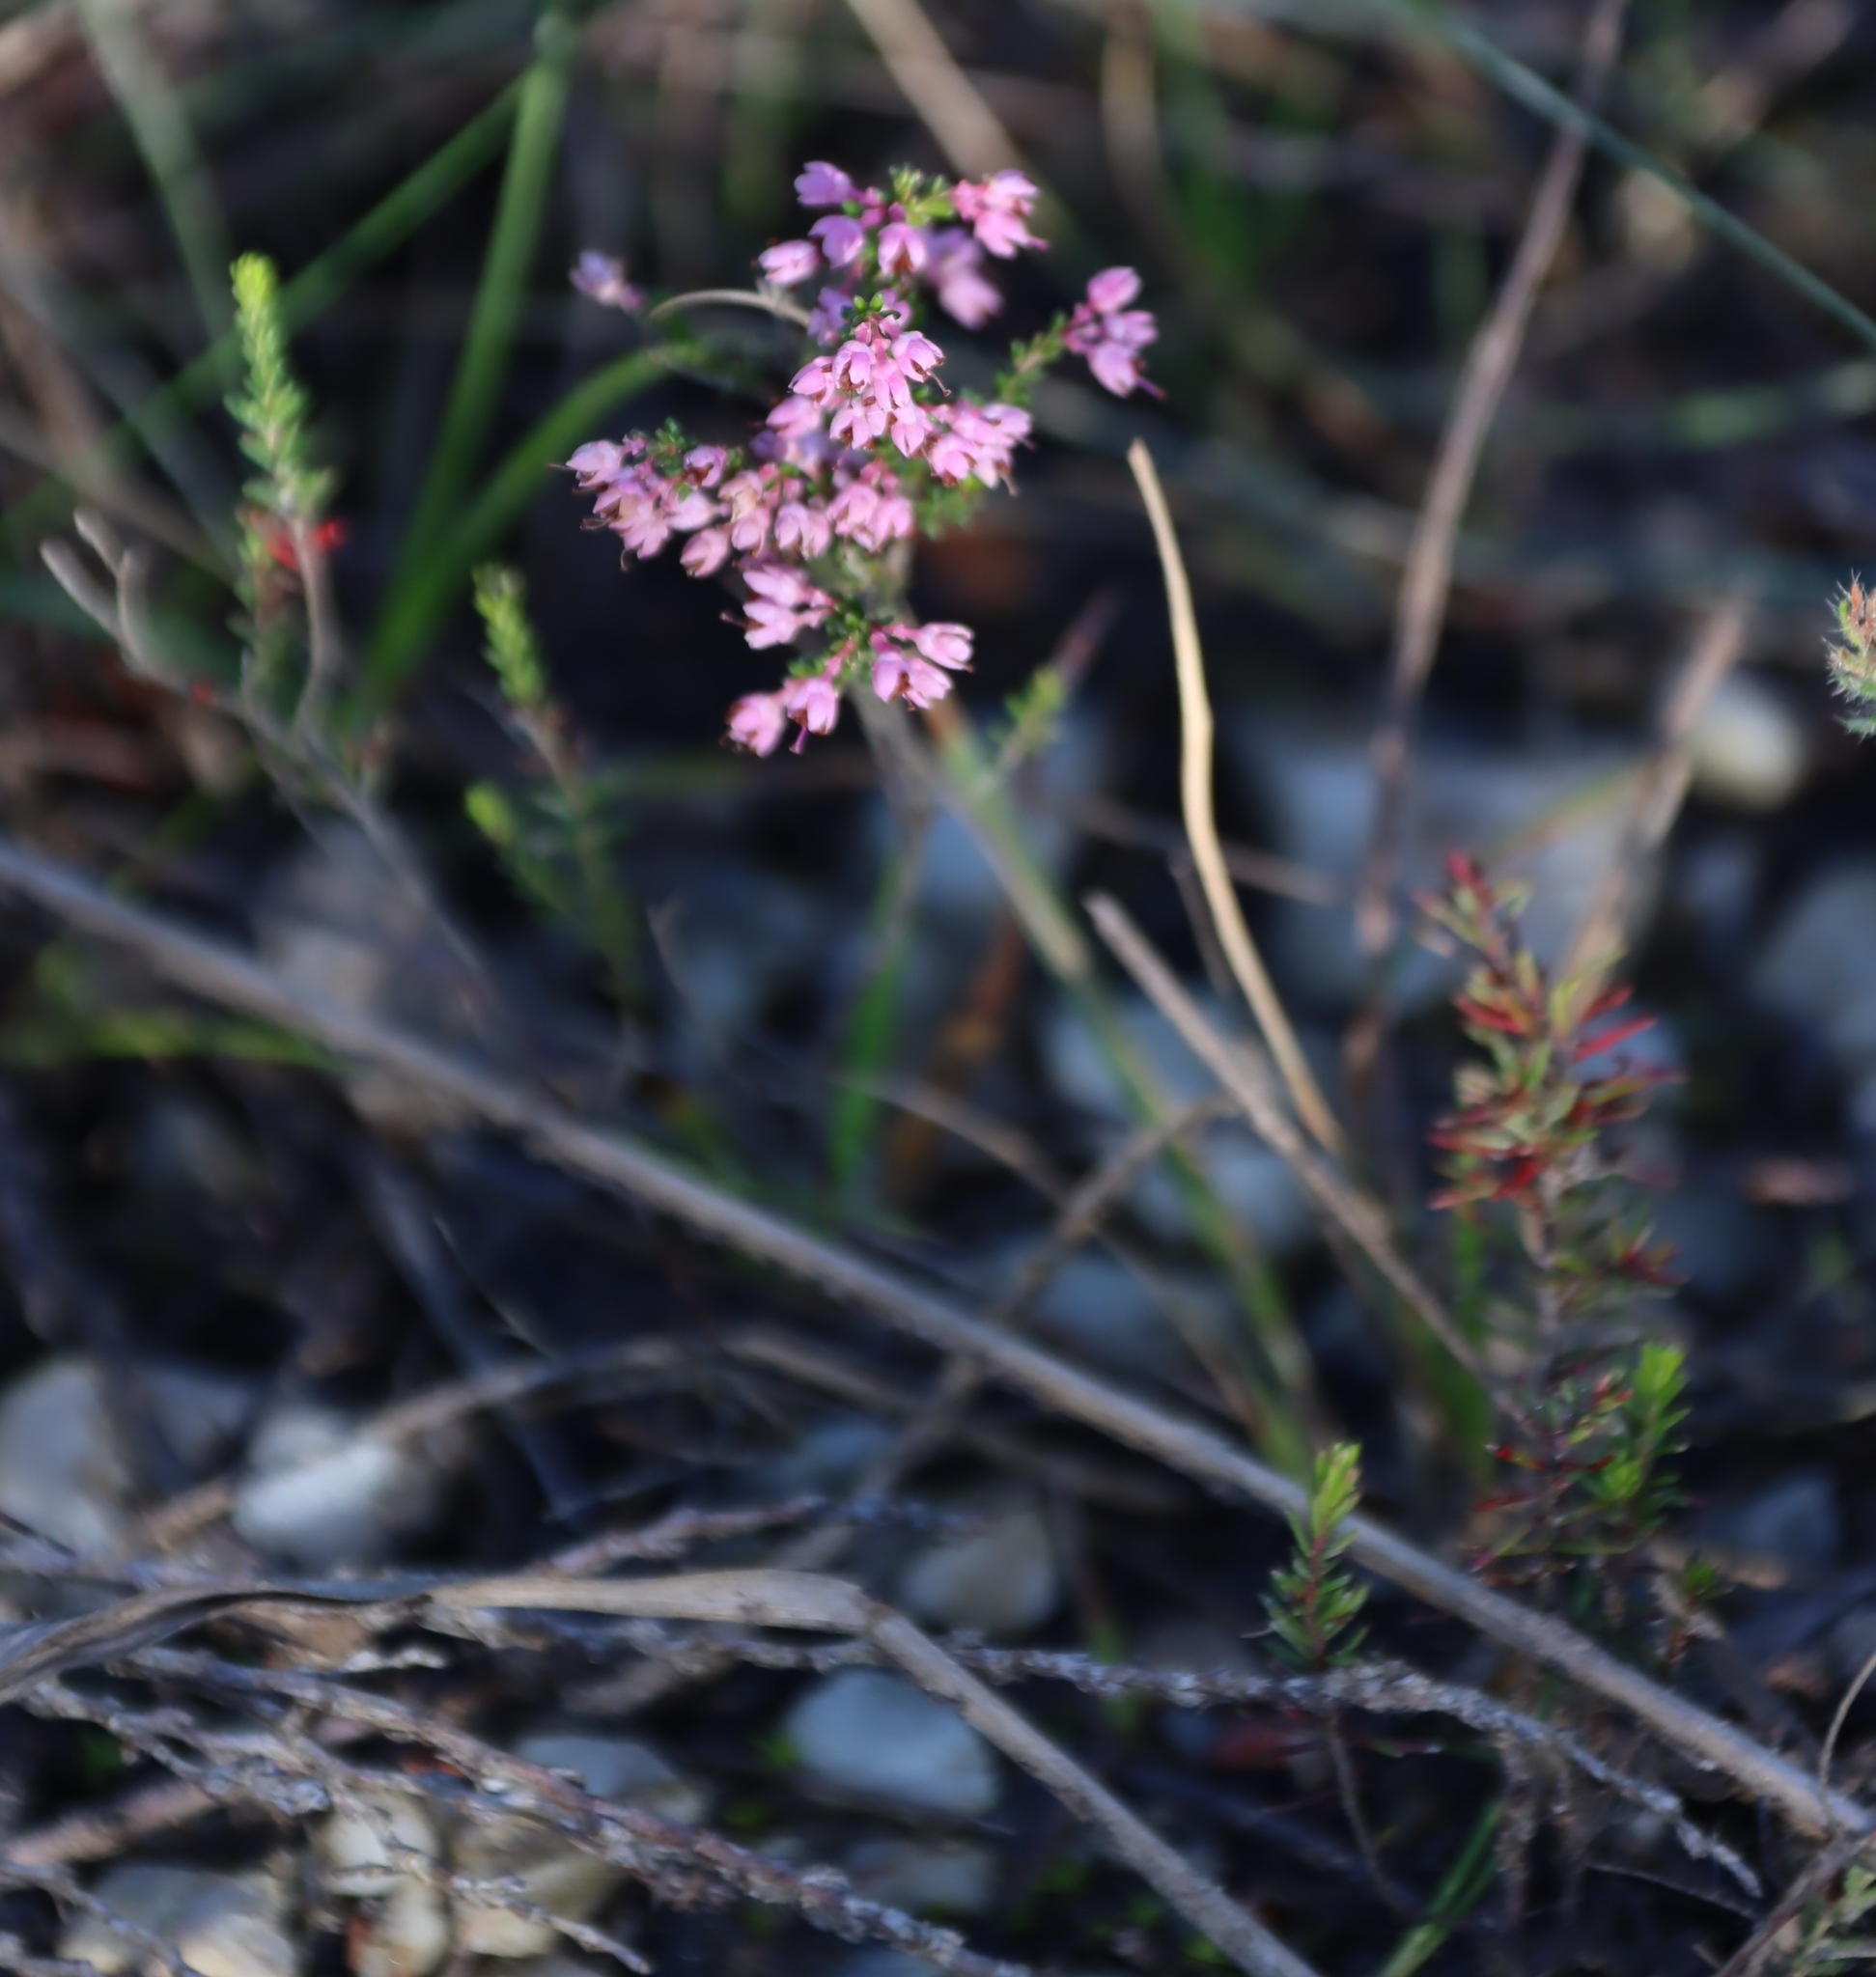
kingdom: Plantae
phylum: Tracheophyta
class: Magnoliopsida
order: Ericales
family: Ericaceae
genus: Erica
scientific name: Erica sparsa
